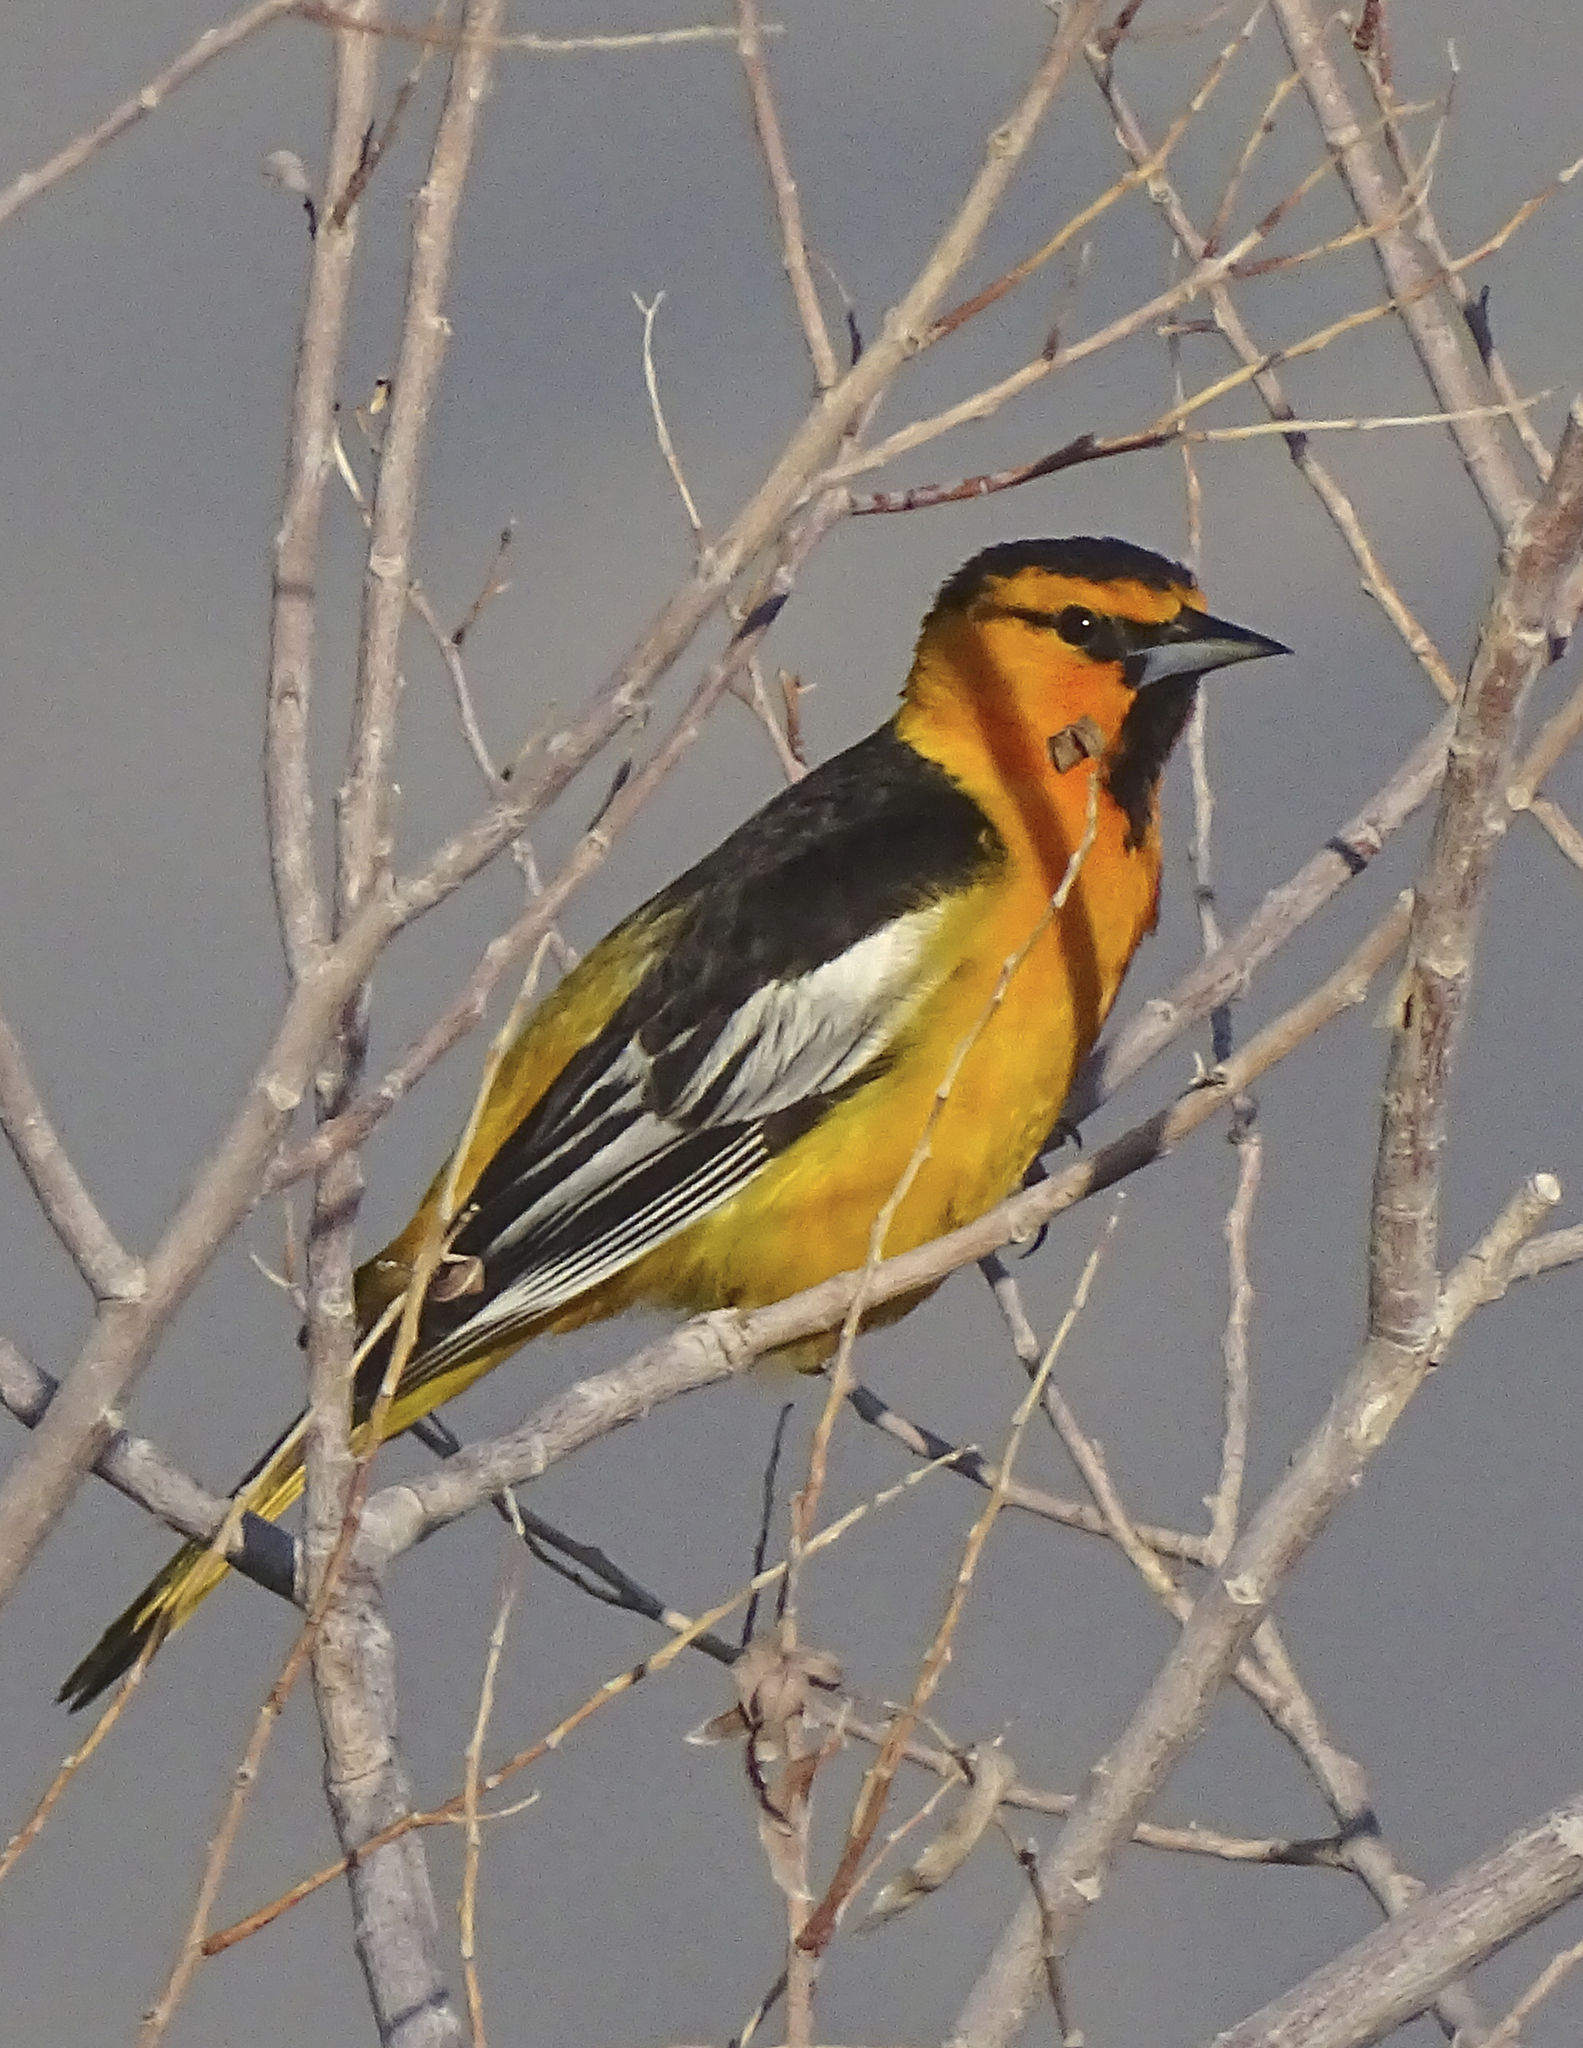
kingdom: Animalia
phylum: Chordata
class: Aves
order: Passeriformes
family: Icteridae
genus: Icterus
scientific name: Icterus bullockii
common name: Bullock's oriole
